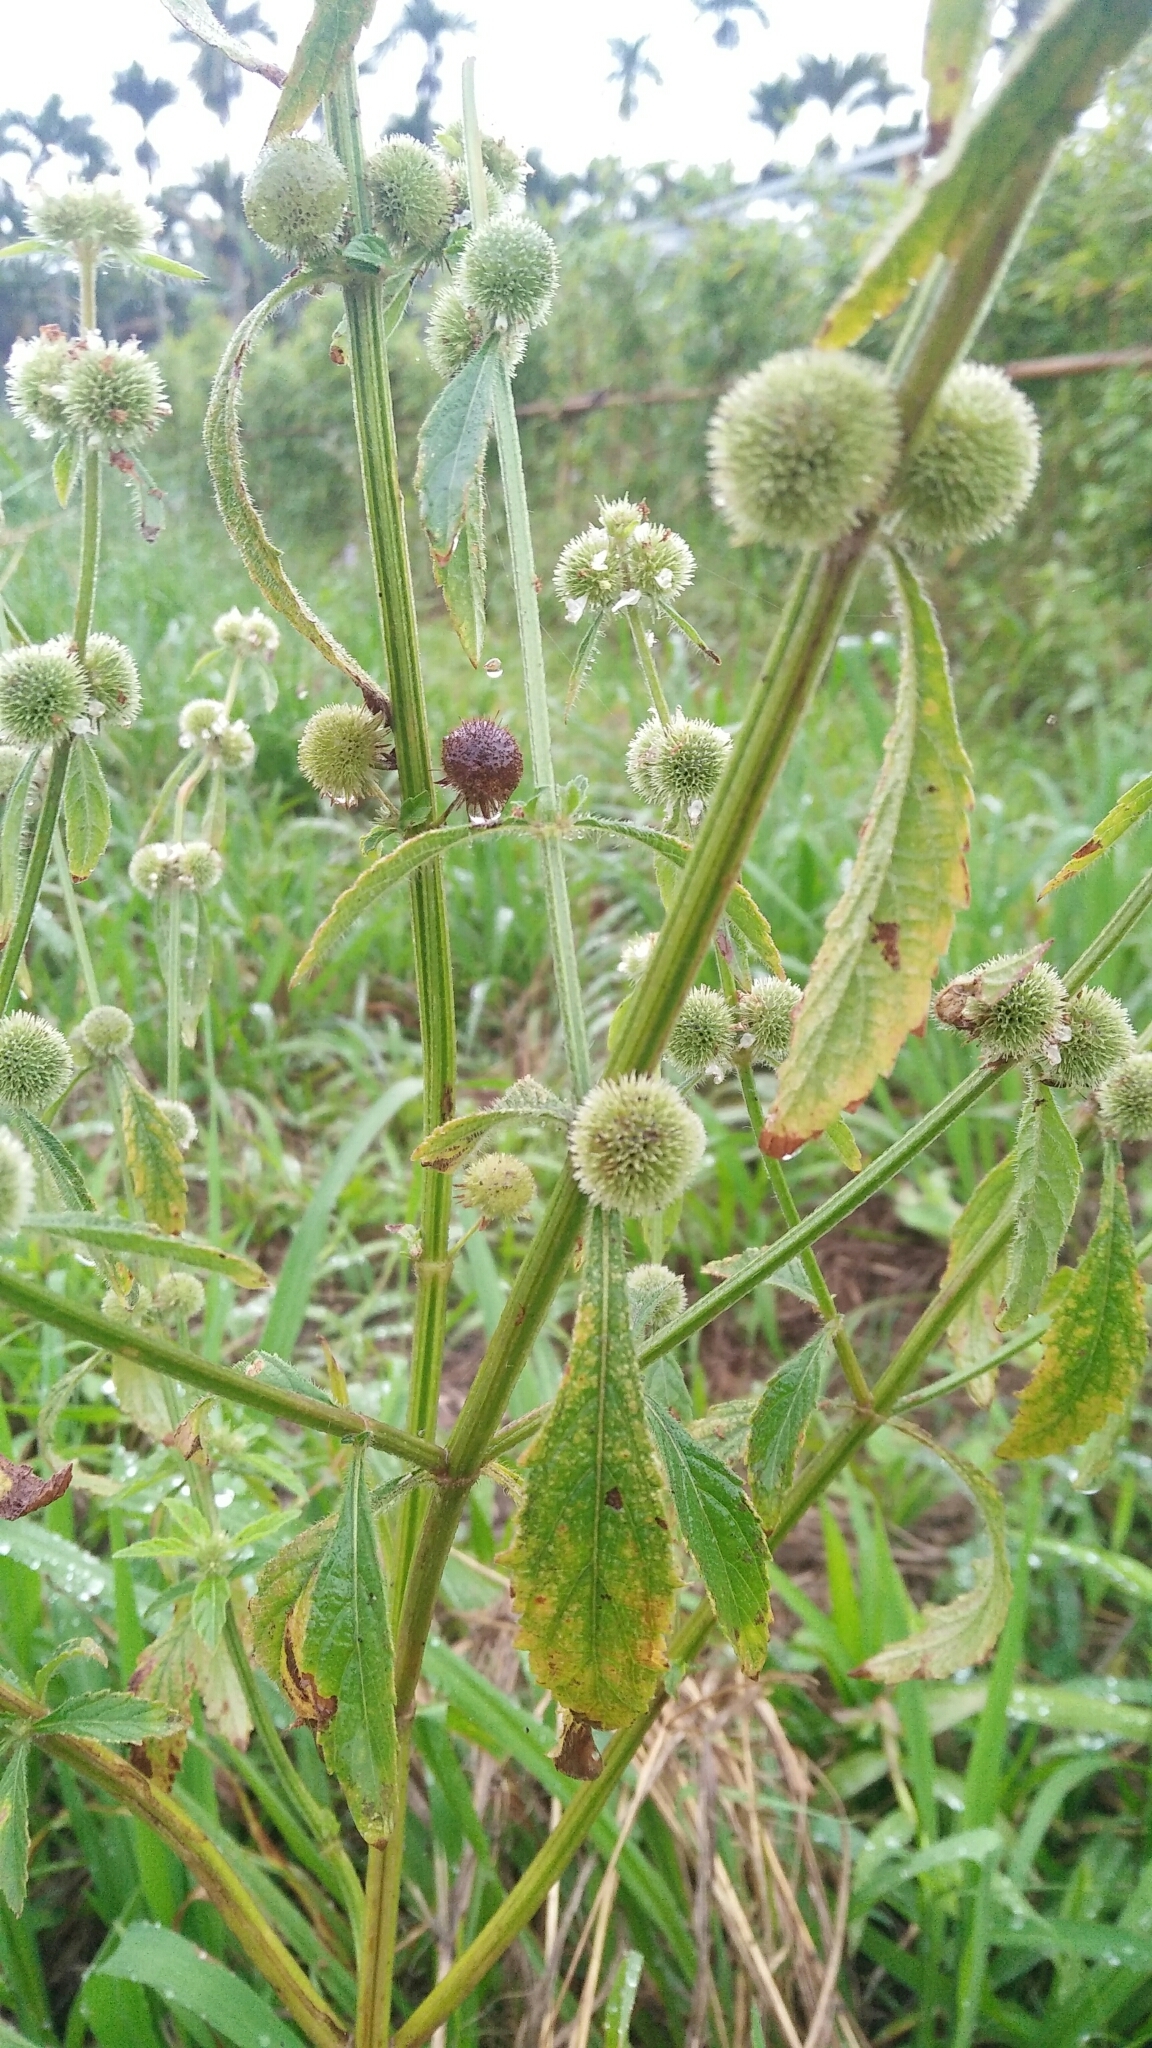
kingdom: Plantae
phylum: Tracheophyta
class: Magnoliopsida
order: Lamiales
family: Lamiaceae
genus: Hyptis
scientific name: Hyptis brevipes
